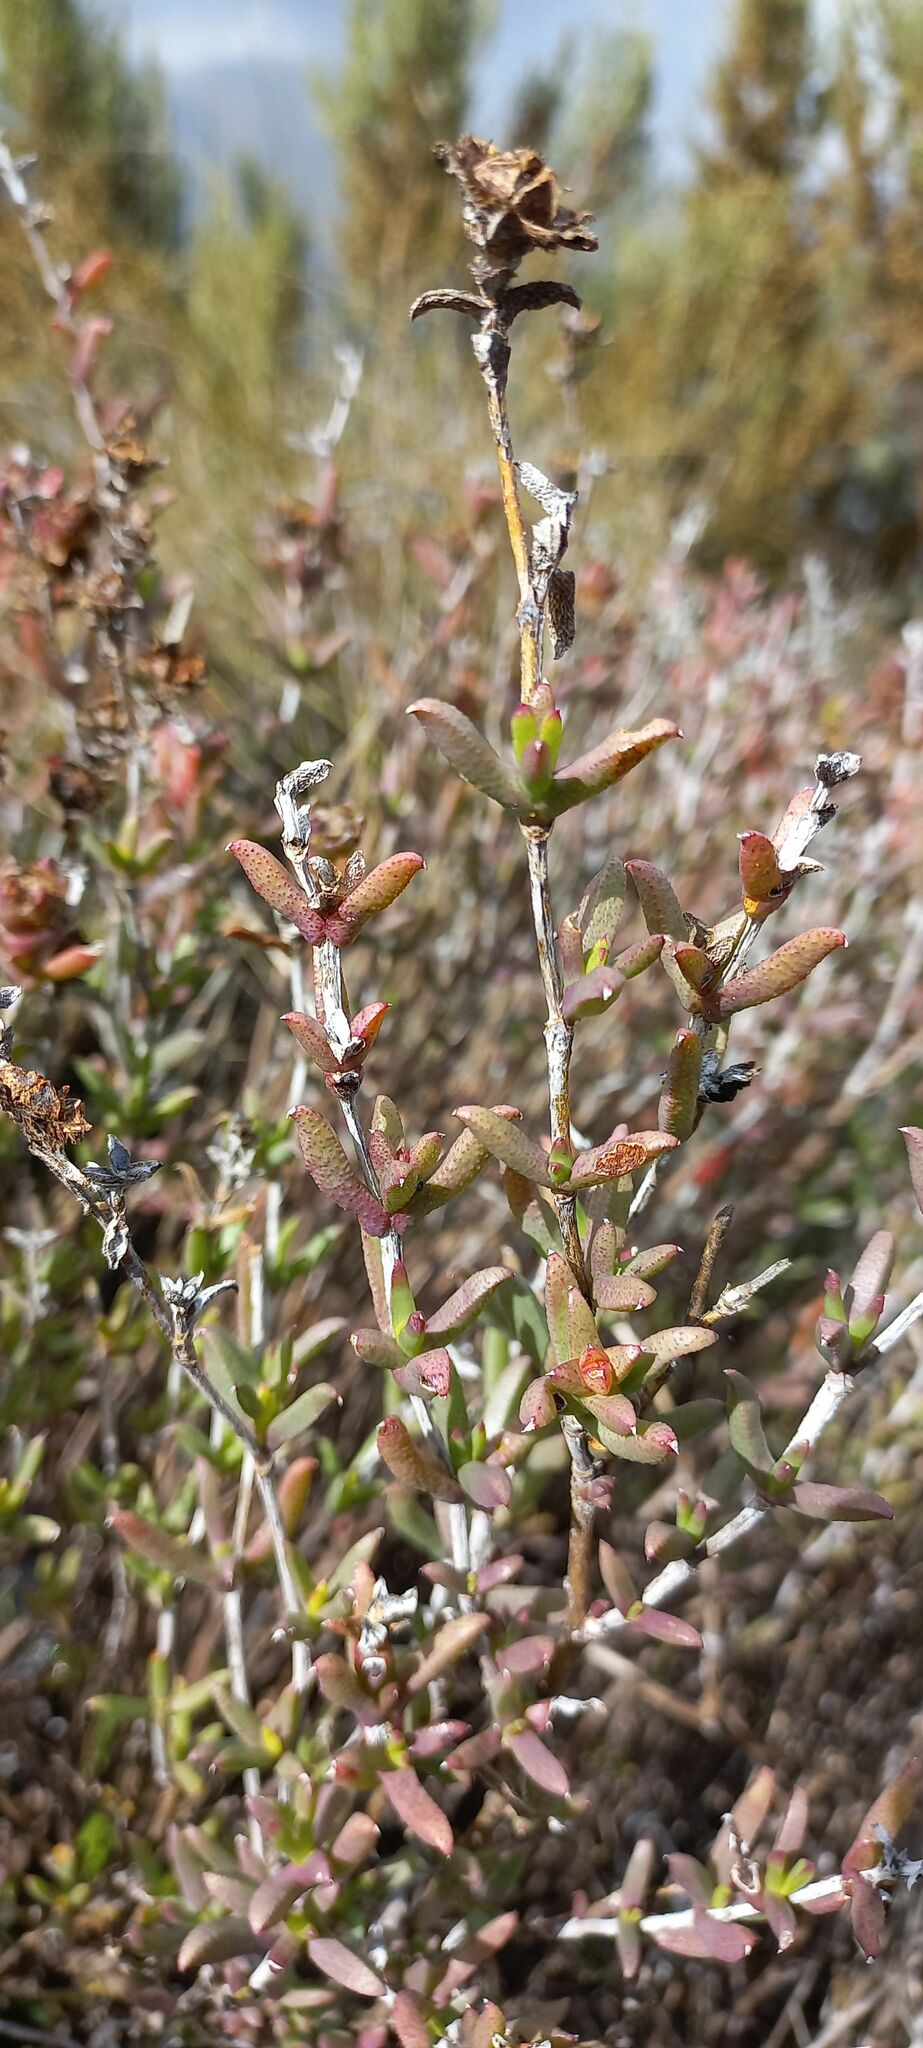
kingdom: Plantae
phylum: Tracheophyta
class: Magnoliopsida
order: Caryophyllales
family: Aizoaceae
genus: Erepsia
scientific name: Erepsia bracteata
